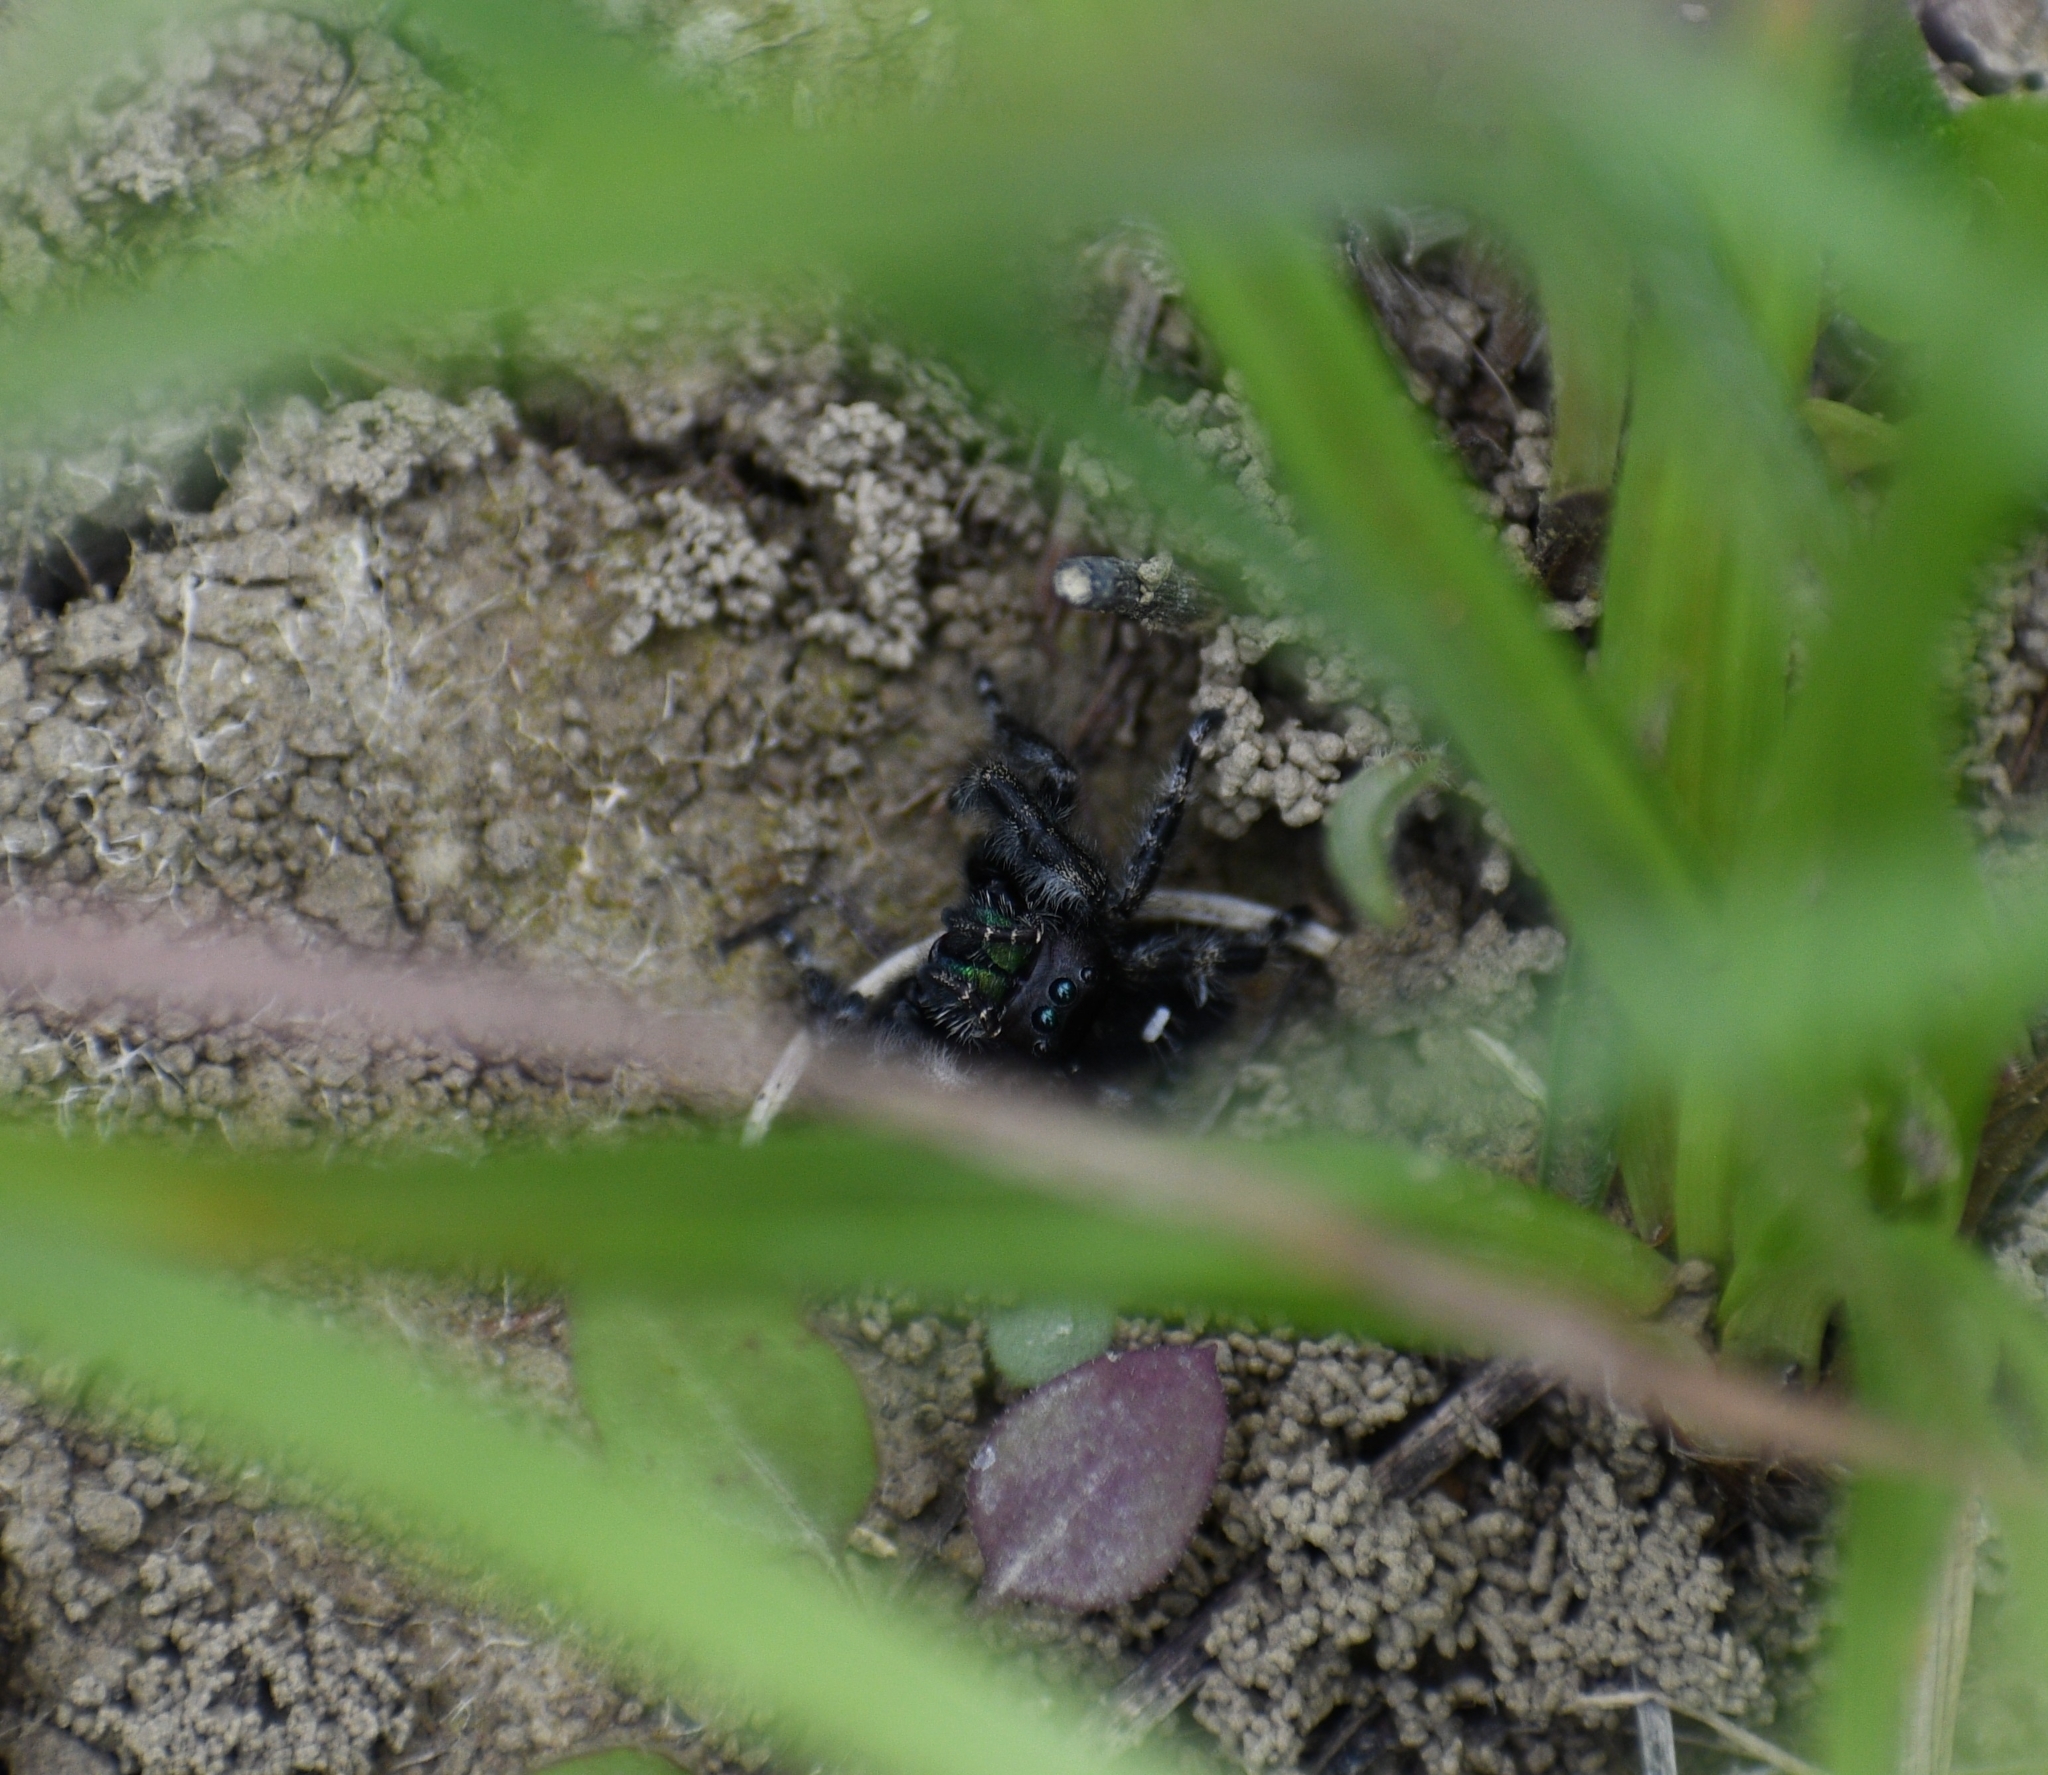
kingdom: Animalia
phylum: Arthropoda
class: Arachnida
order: Araneae
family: Salticidae
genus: Phidippus
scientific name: Phidippus audax
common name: Bold jumper
